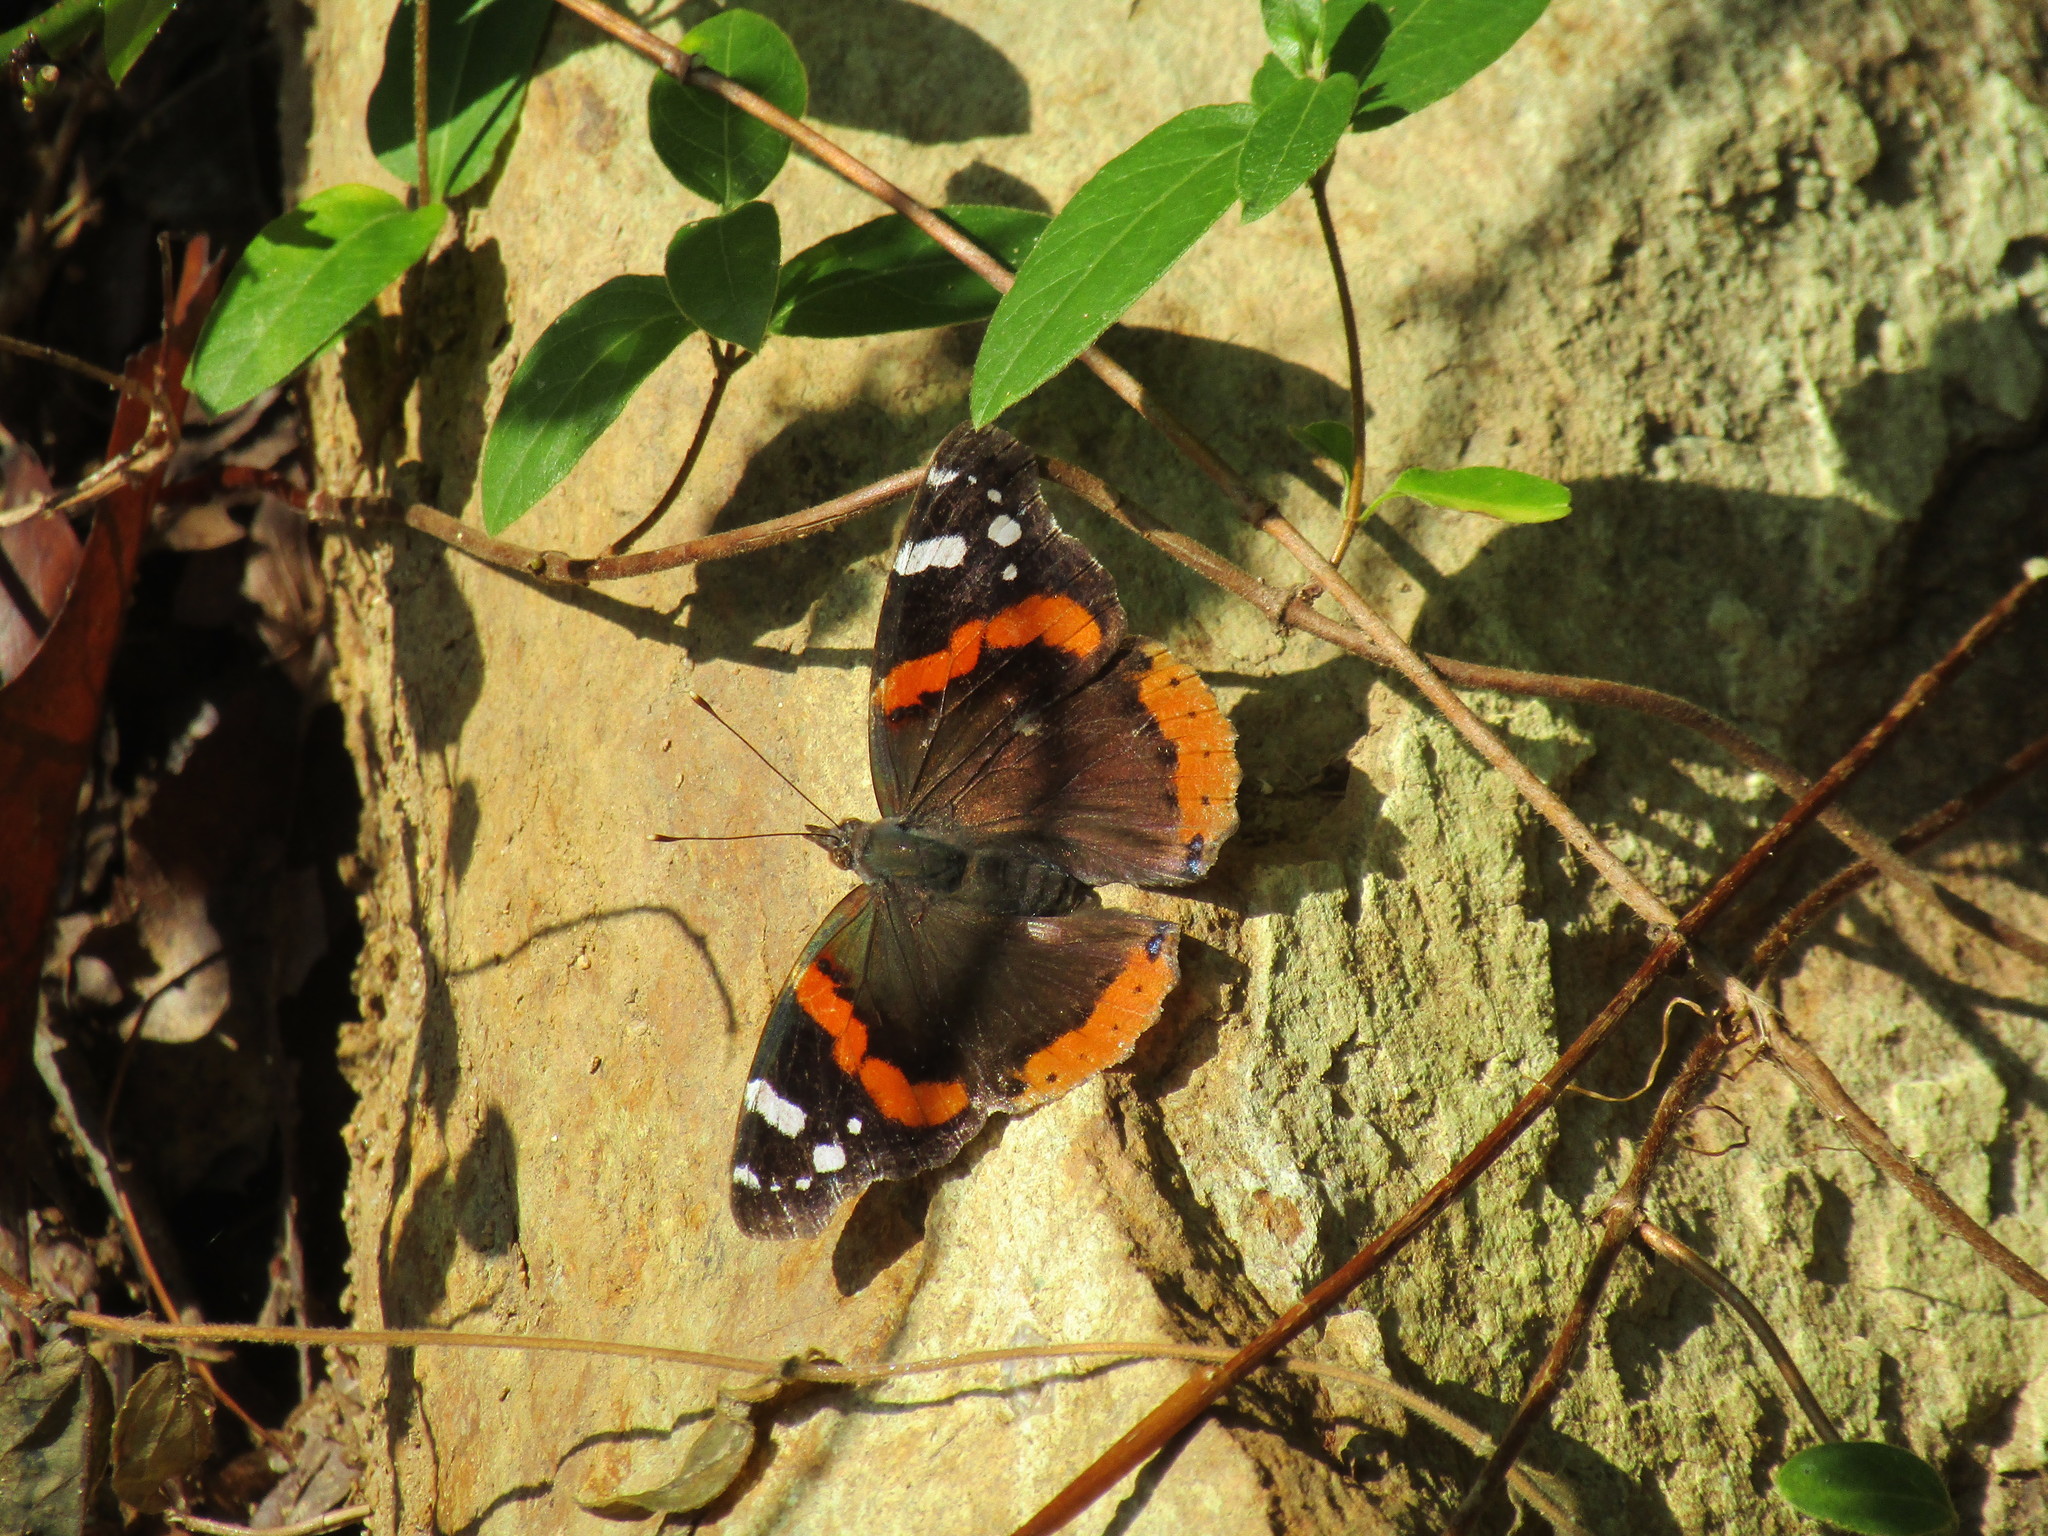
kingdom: Animalia
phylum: Arthropoda
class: Insecta
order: Lepidoptera
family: Nymphalidae
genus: Vanessa
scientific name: Vanessa atalanta
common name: Red admiral
